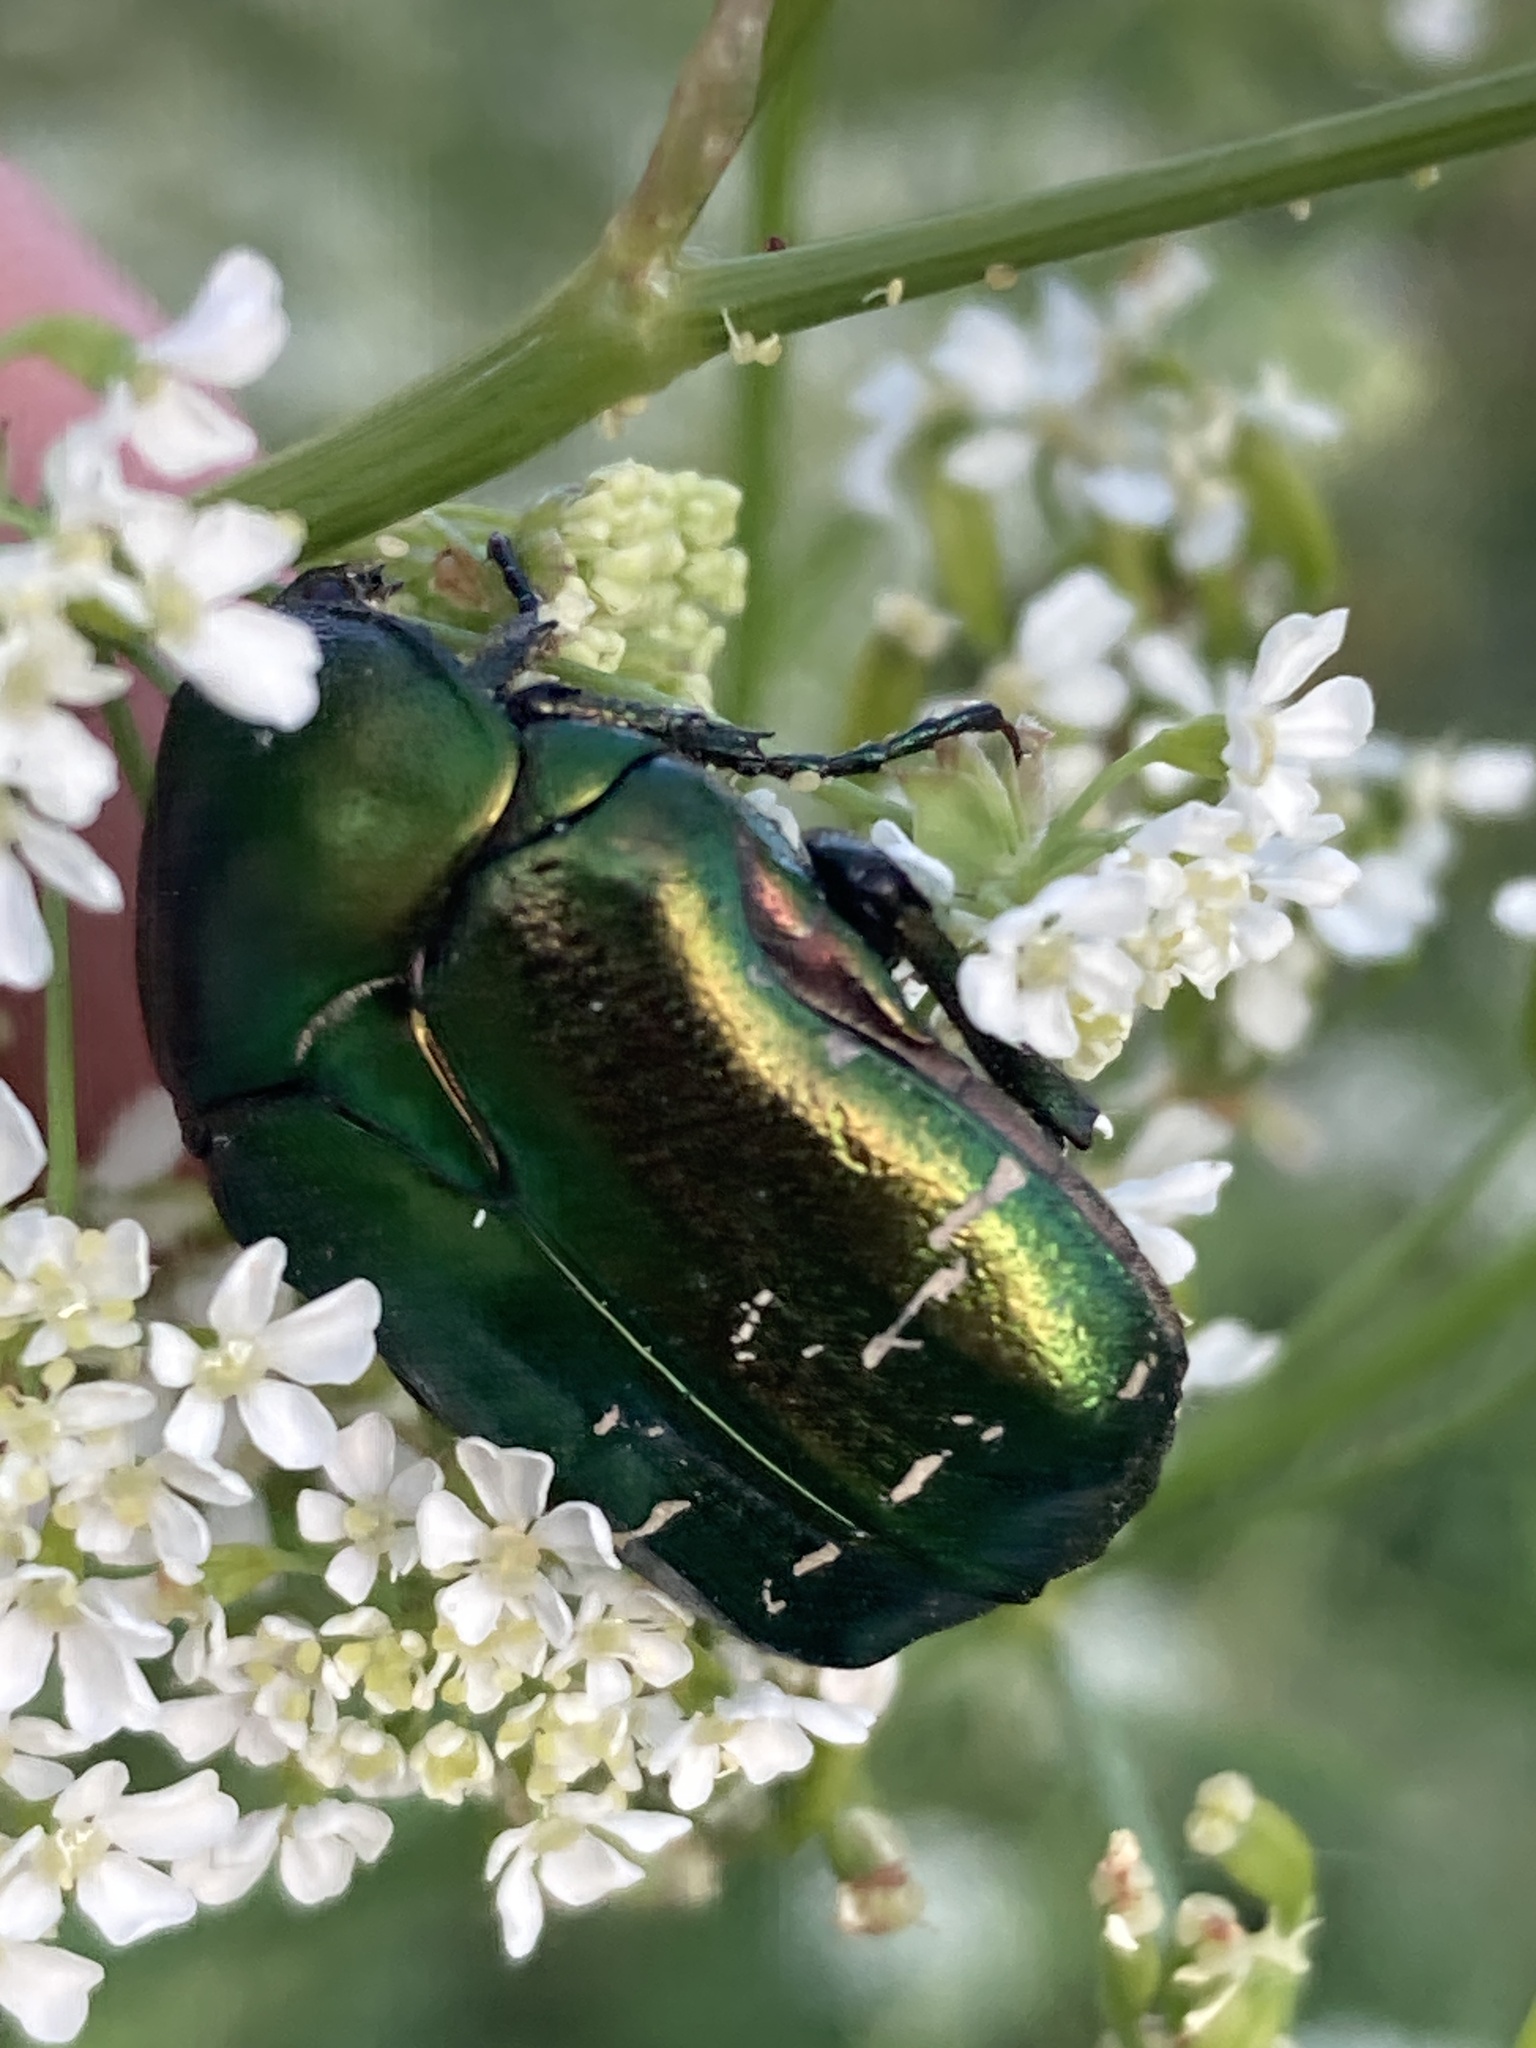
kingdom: Animalia
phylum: Arthropoda
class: Insecta
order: Coleoptera
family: Scarabaeidae
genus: Cetonia
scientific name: Cetonia aurata
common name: Rose chafer
